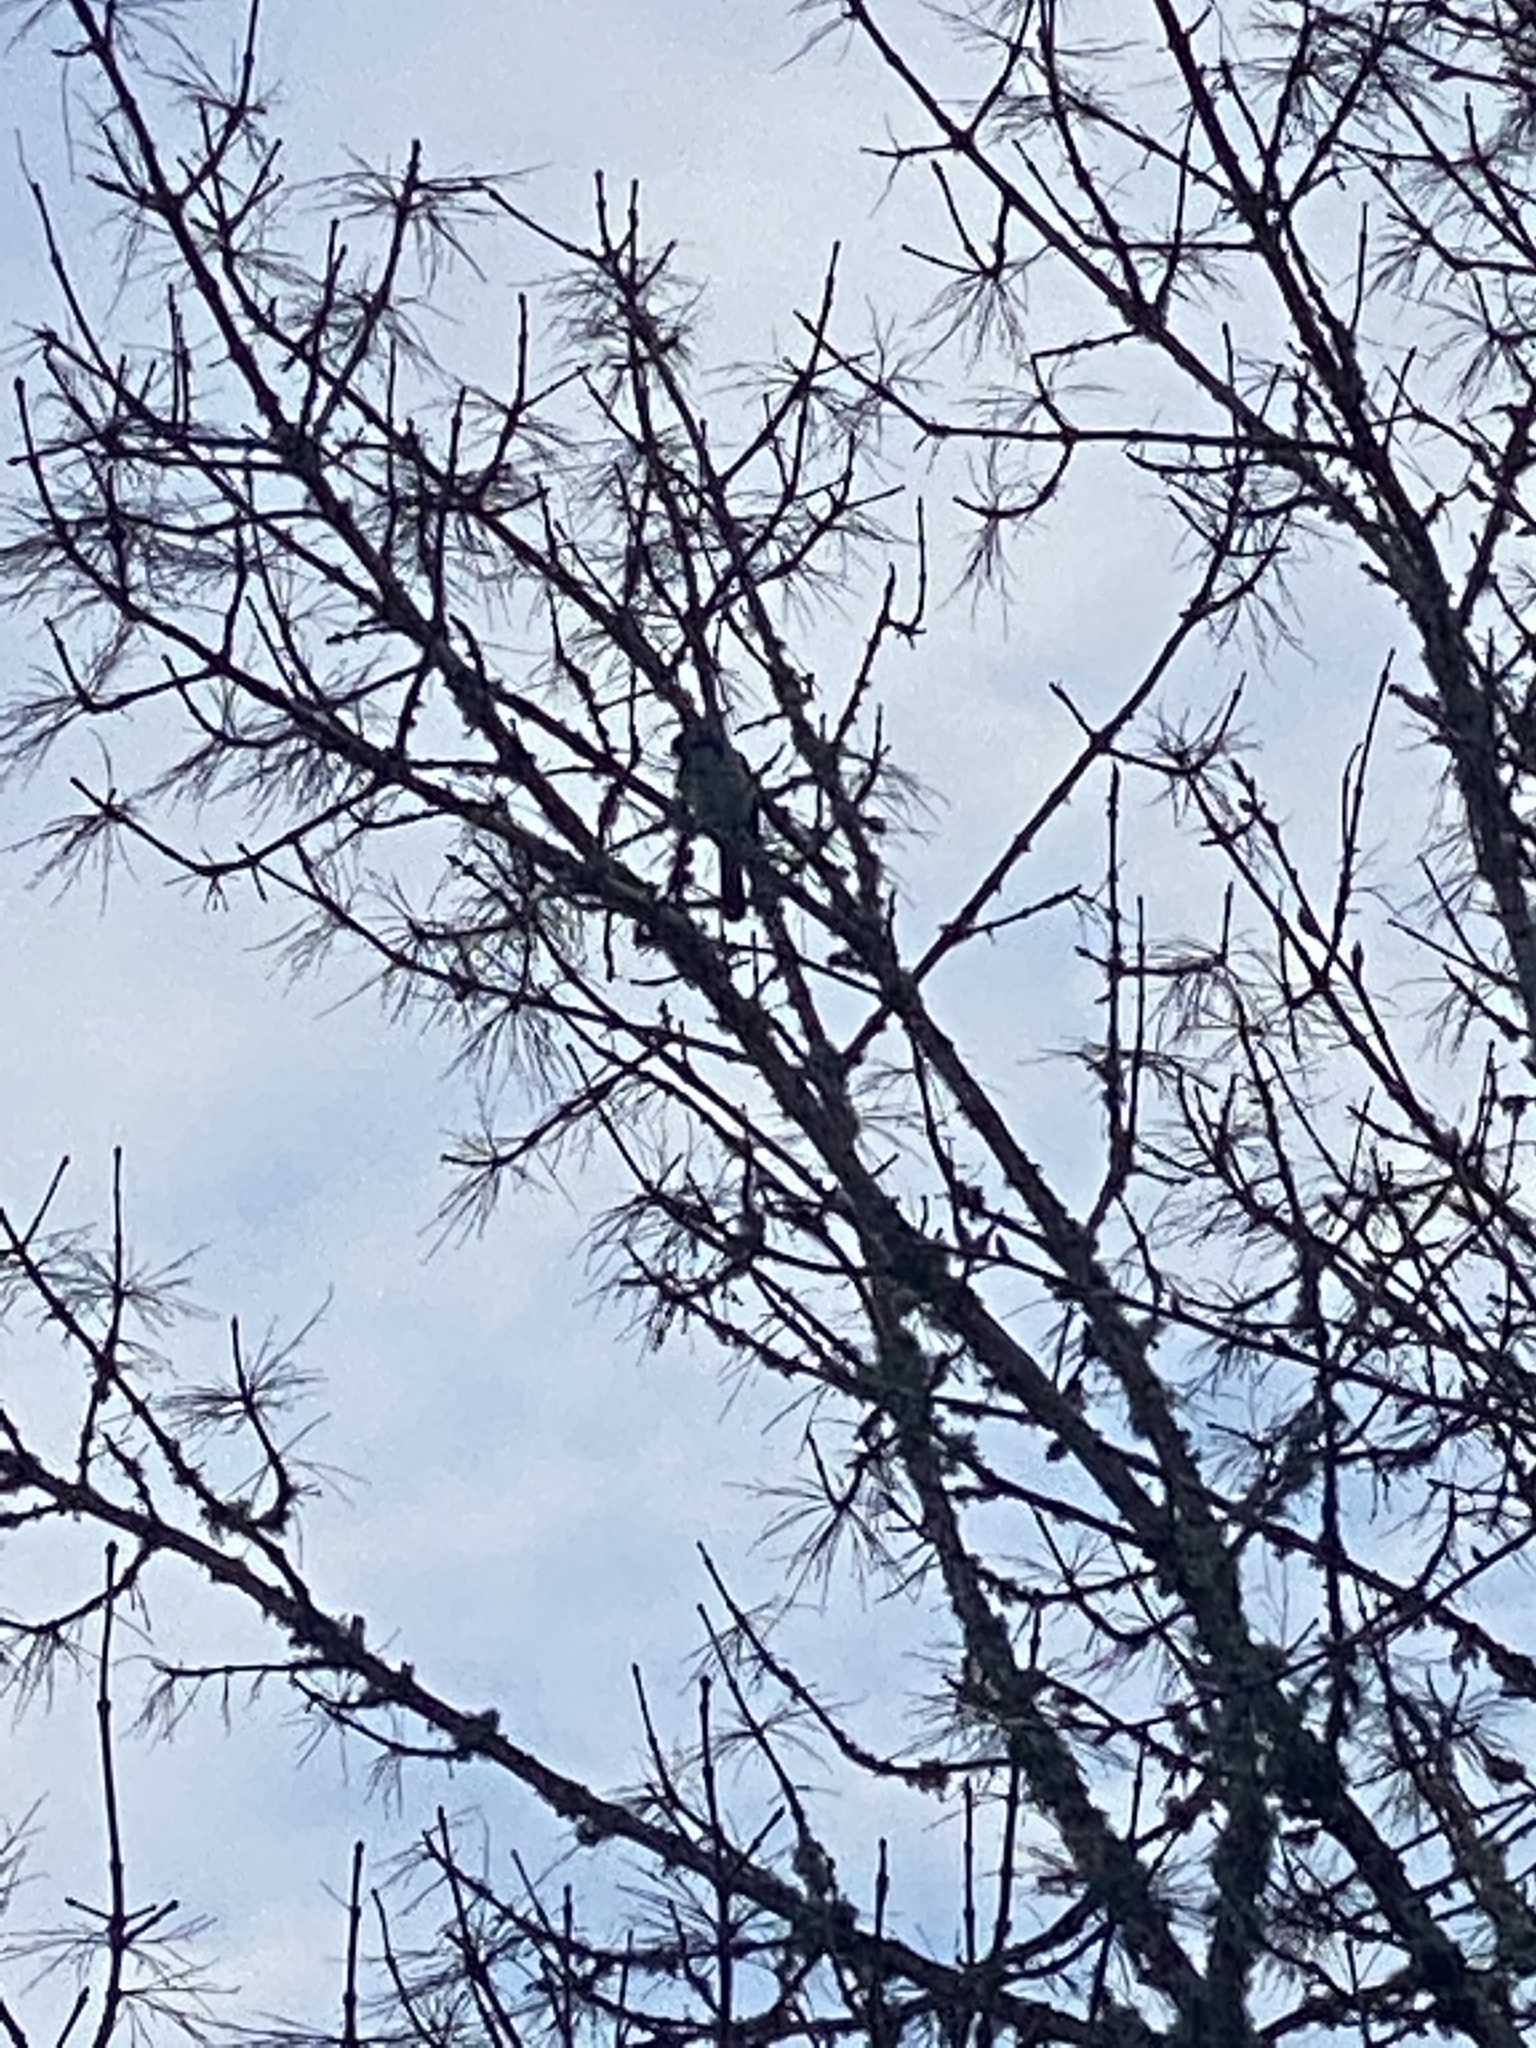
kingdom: Animalia
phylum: Chordata
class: Aves
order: Passeriformes
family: Corvidae
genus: Aphelocoma
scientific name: Aphelocoma californica
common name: California scrub-jay
